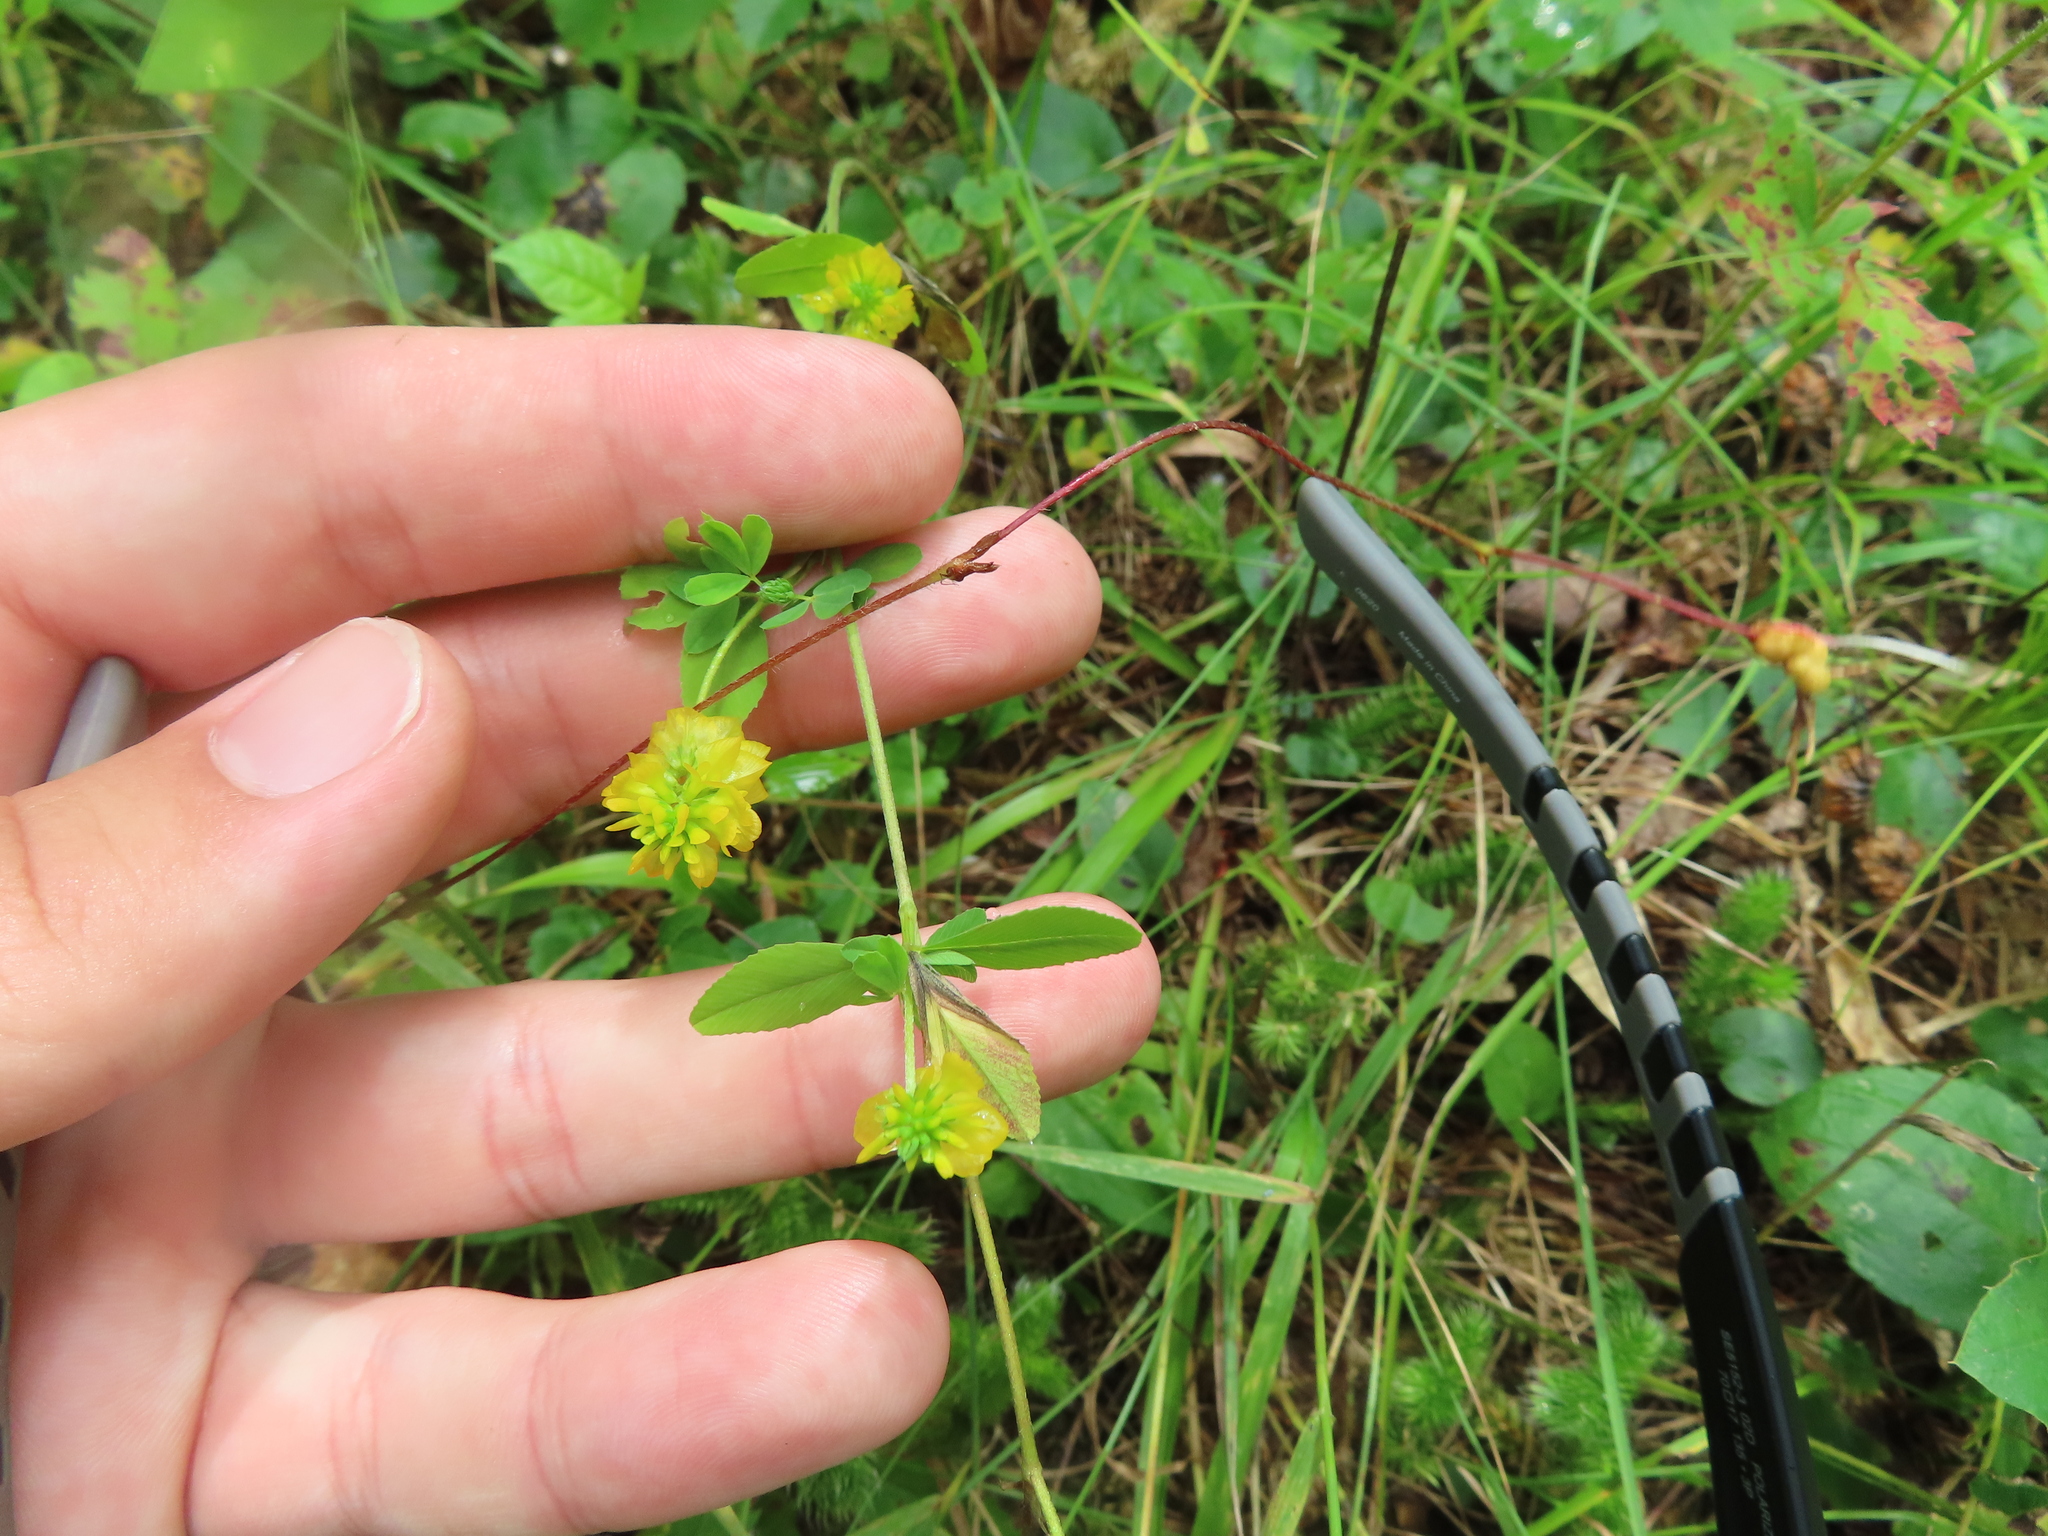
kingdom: Plantae
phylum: Tracheophyta
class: Magnoliopsida
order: Fabales
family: Fabaceae
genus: Trifolium
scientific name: Trifolium aureum
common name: Golden clover
